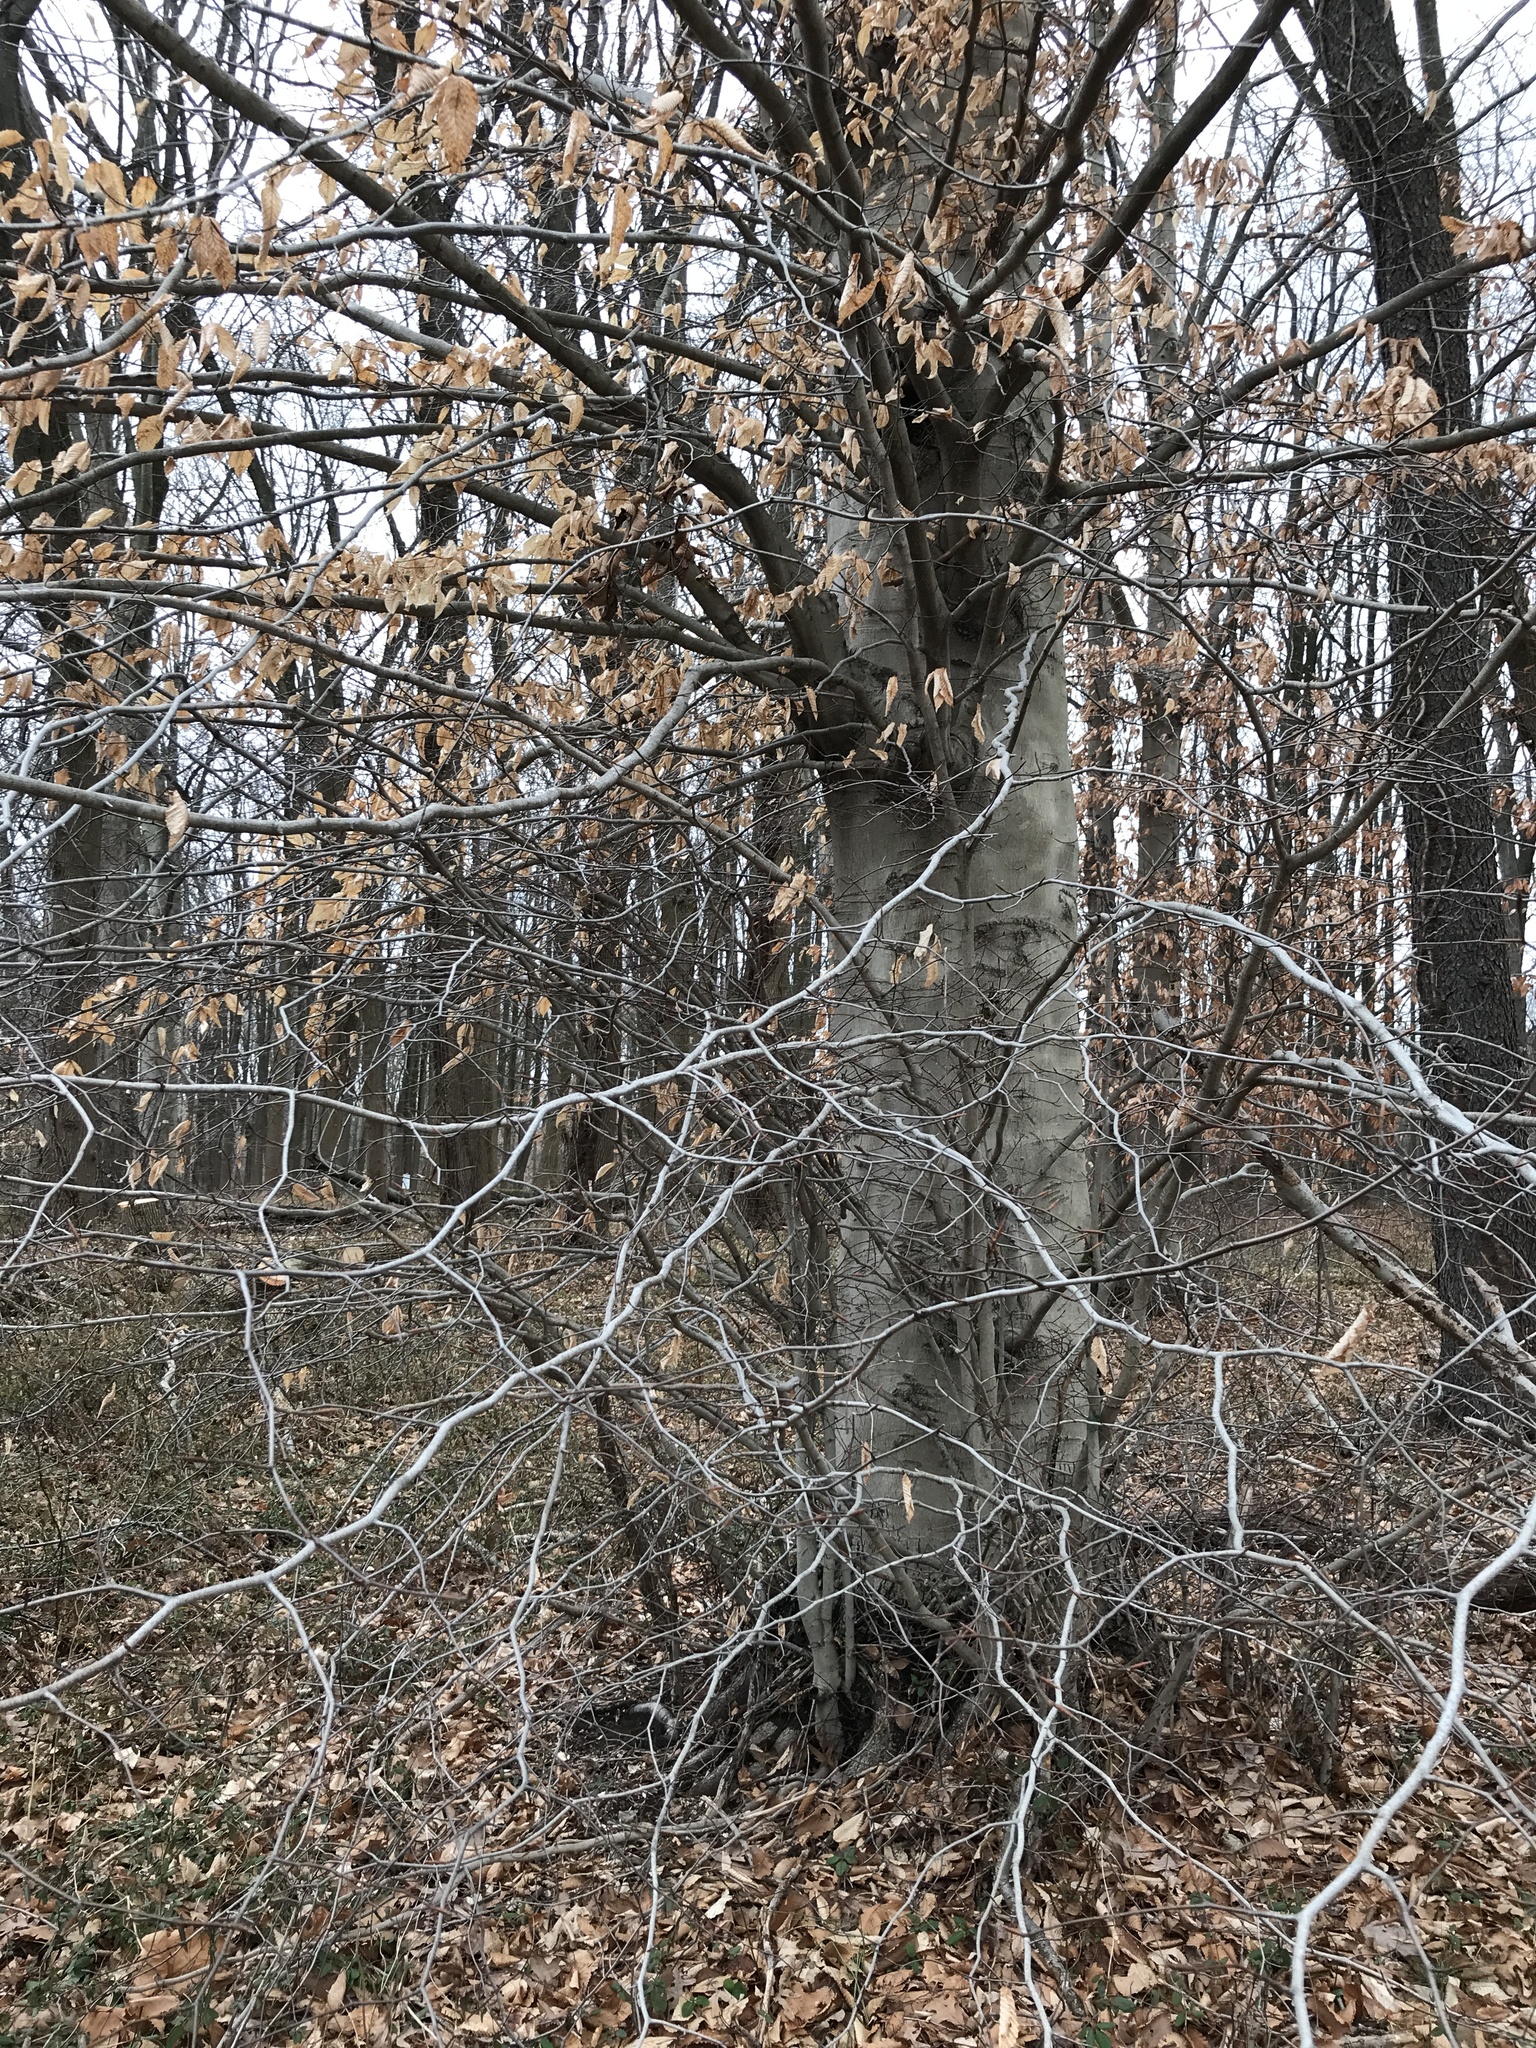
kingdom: Plantae
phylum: Tracheophyta
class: Magnoliopsida
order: Fagales
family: Fagaceae
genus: Fagus
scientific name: Fagus grandifolia
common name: American beech
